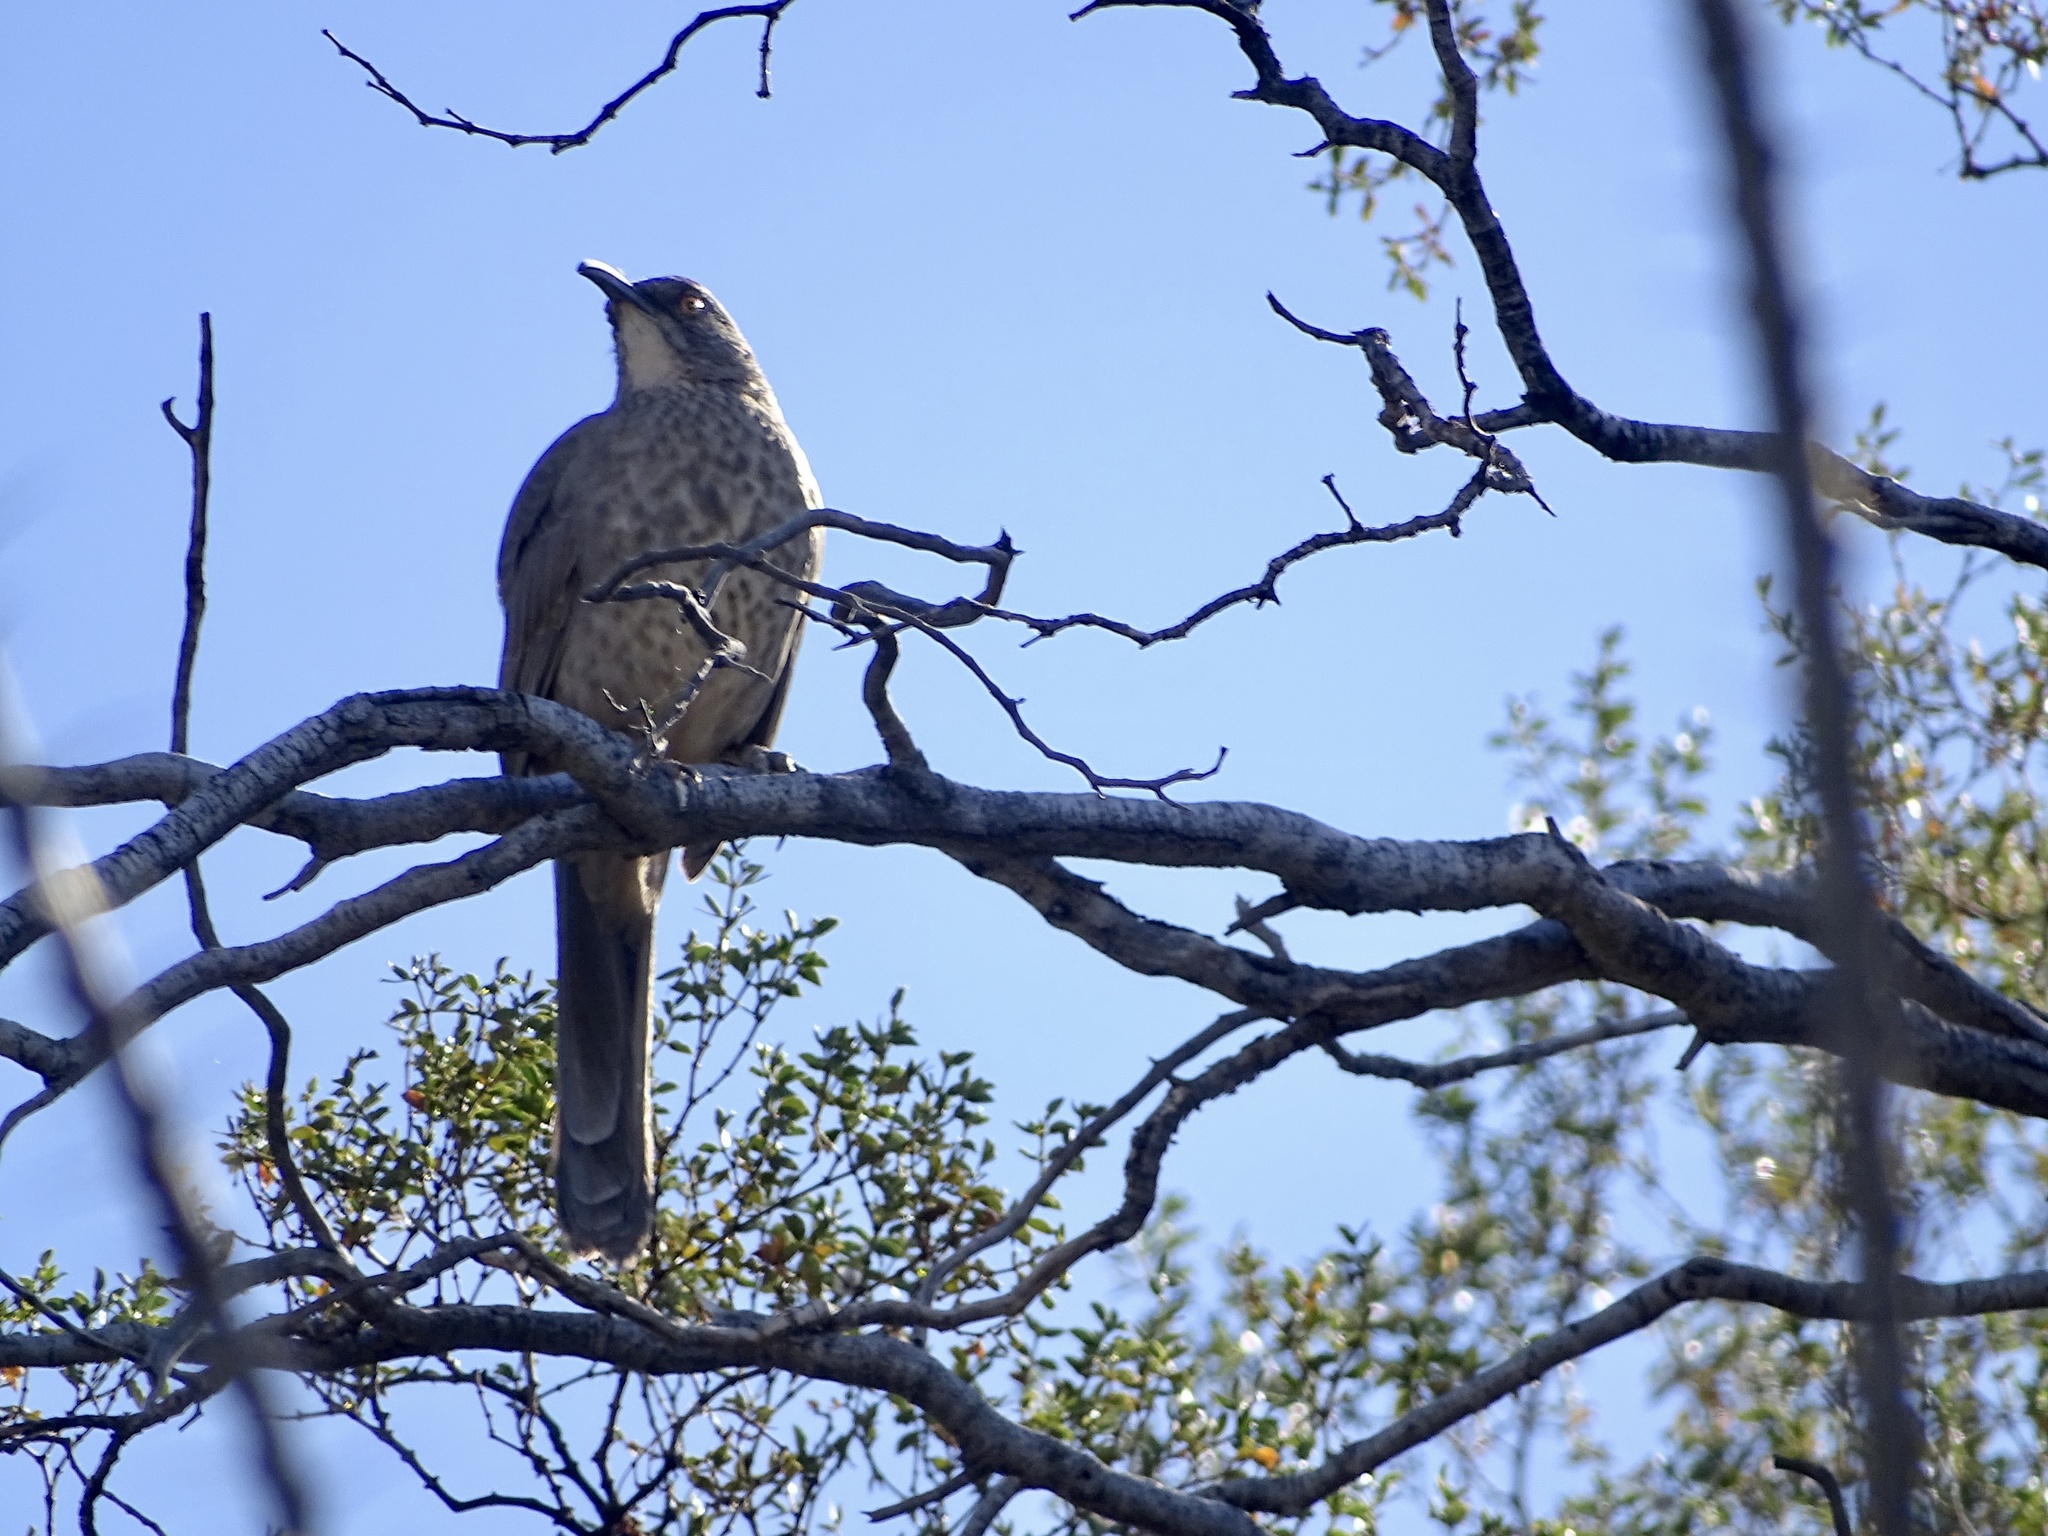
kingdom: Animalia
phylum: Chordata
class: Aves
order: Passeriformes
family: Mimidae
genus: Toxostoma
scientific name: Toxostoma curvirostre
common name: Curve-billed thrasher
